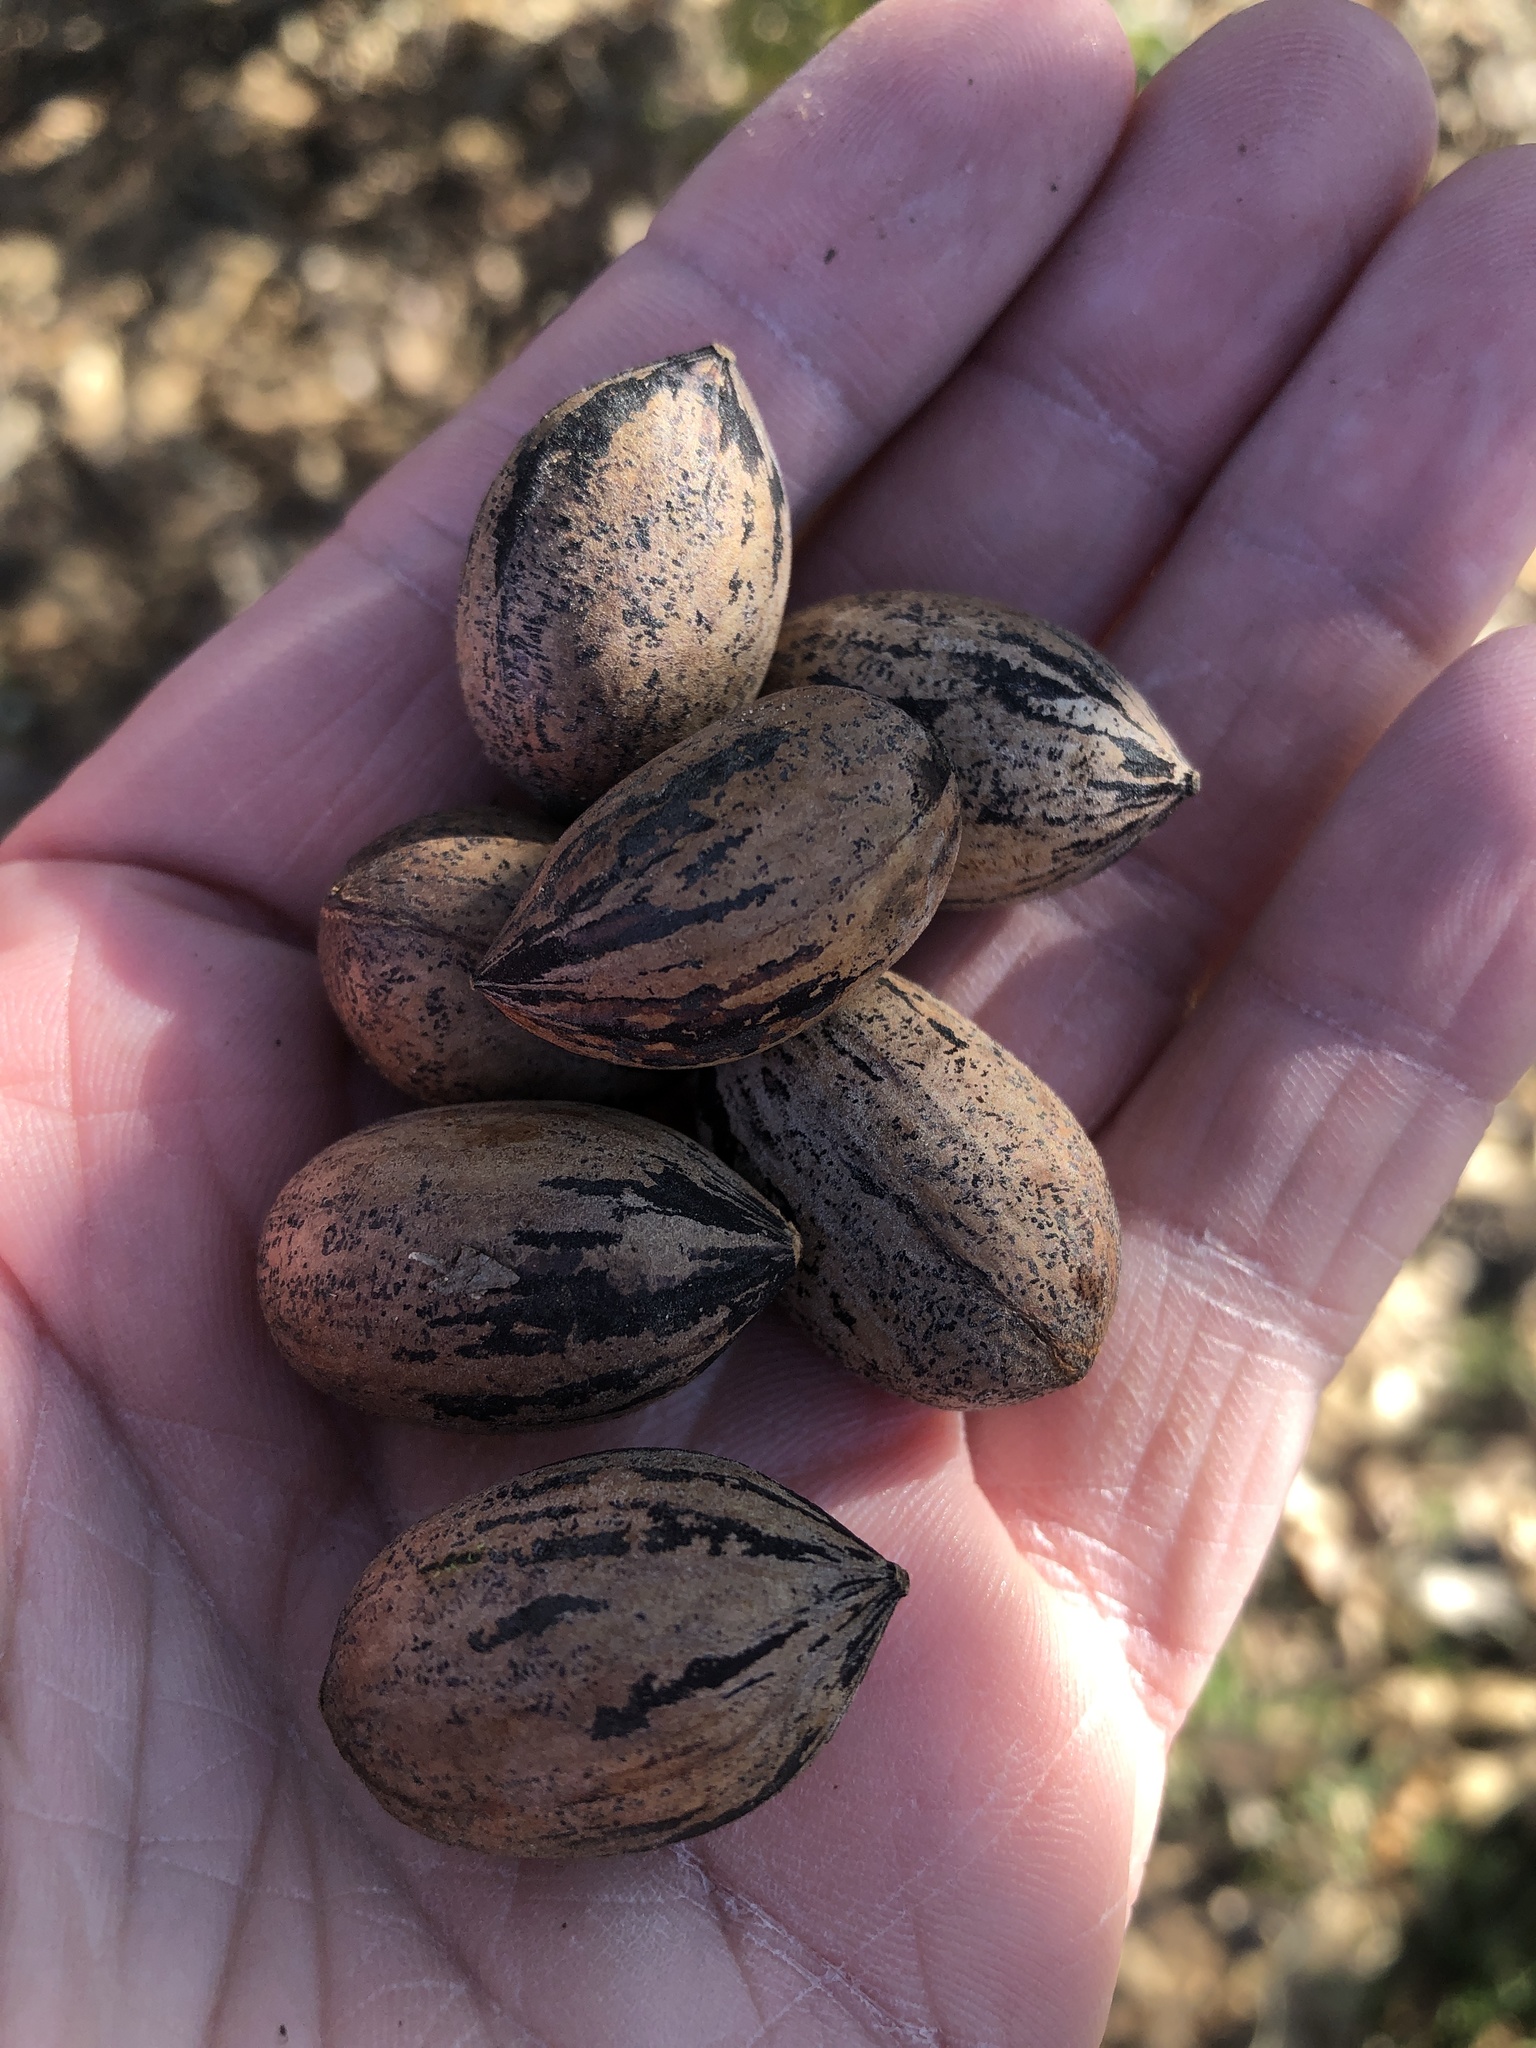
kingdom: Plantae
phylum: Tracheophyta
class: Magnoliopsida
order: Fagales
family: Juglandaceae
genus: Carya
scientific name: Carya illinoinensis
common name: Pecan
